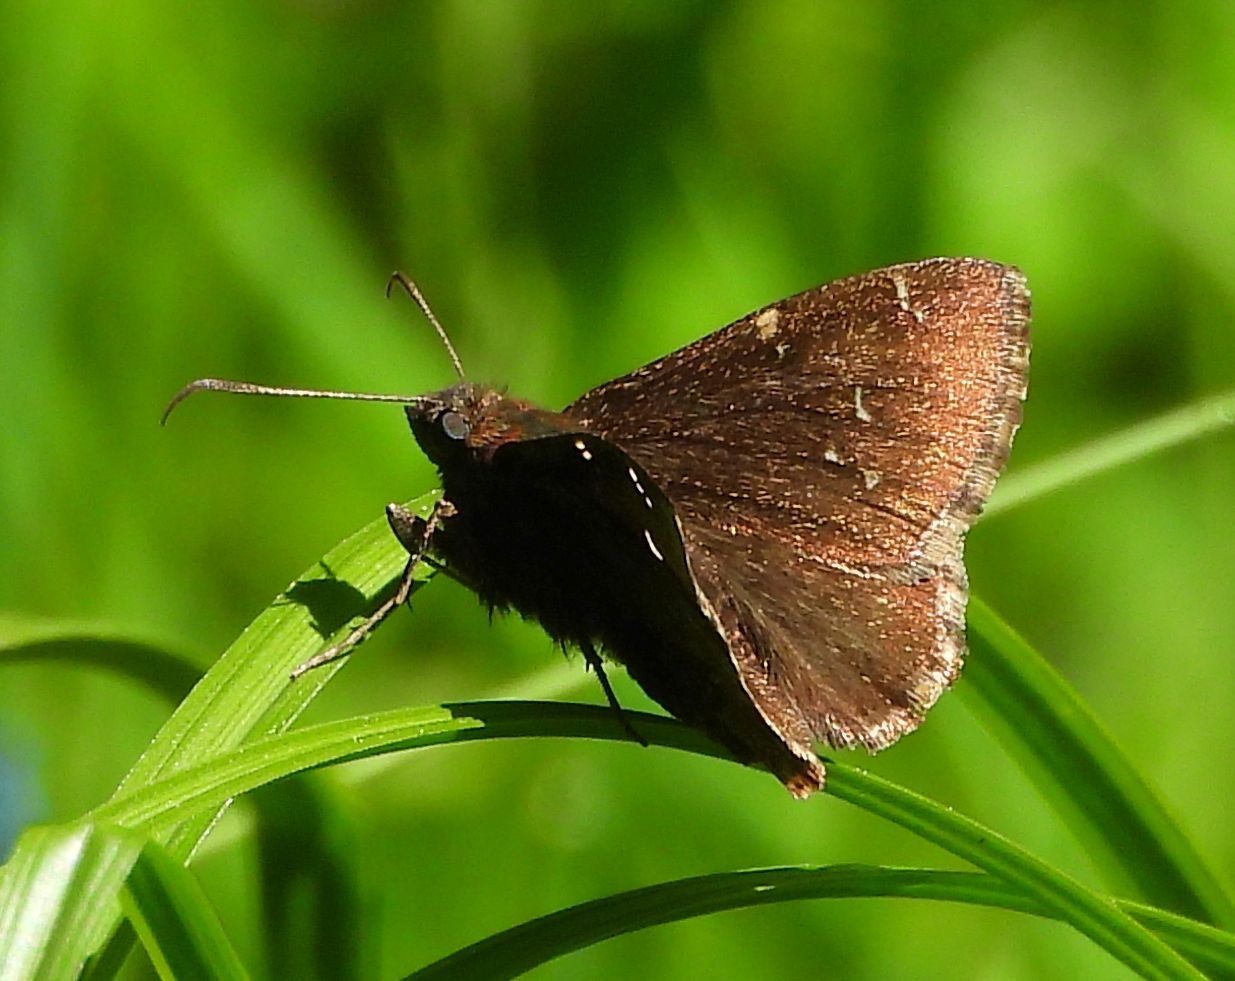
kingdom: Animalia
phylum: Arthropoda
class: Insecta
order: Lepidoptera
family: Hesperiidae
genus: Thorybes
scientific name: Thorybes pylades
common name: Northern cloudywing
